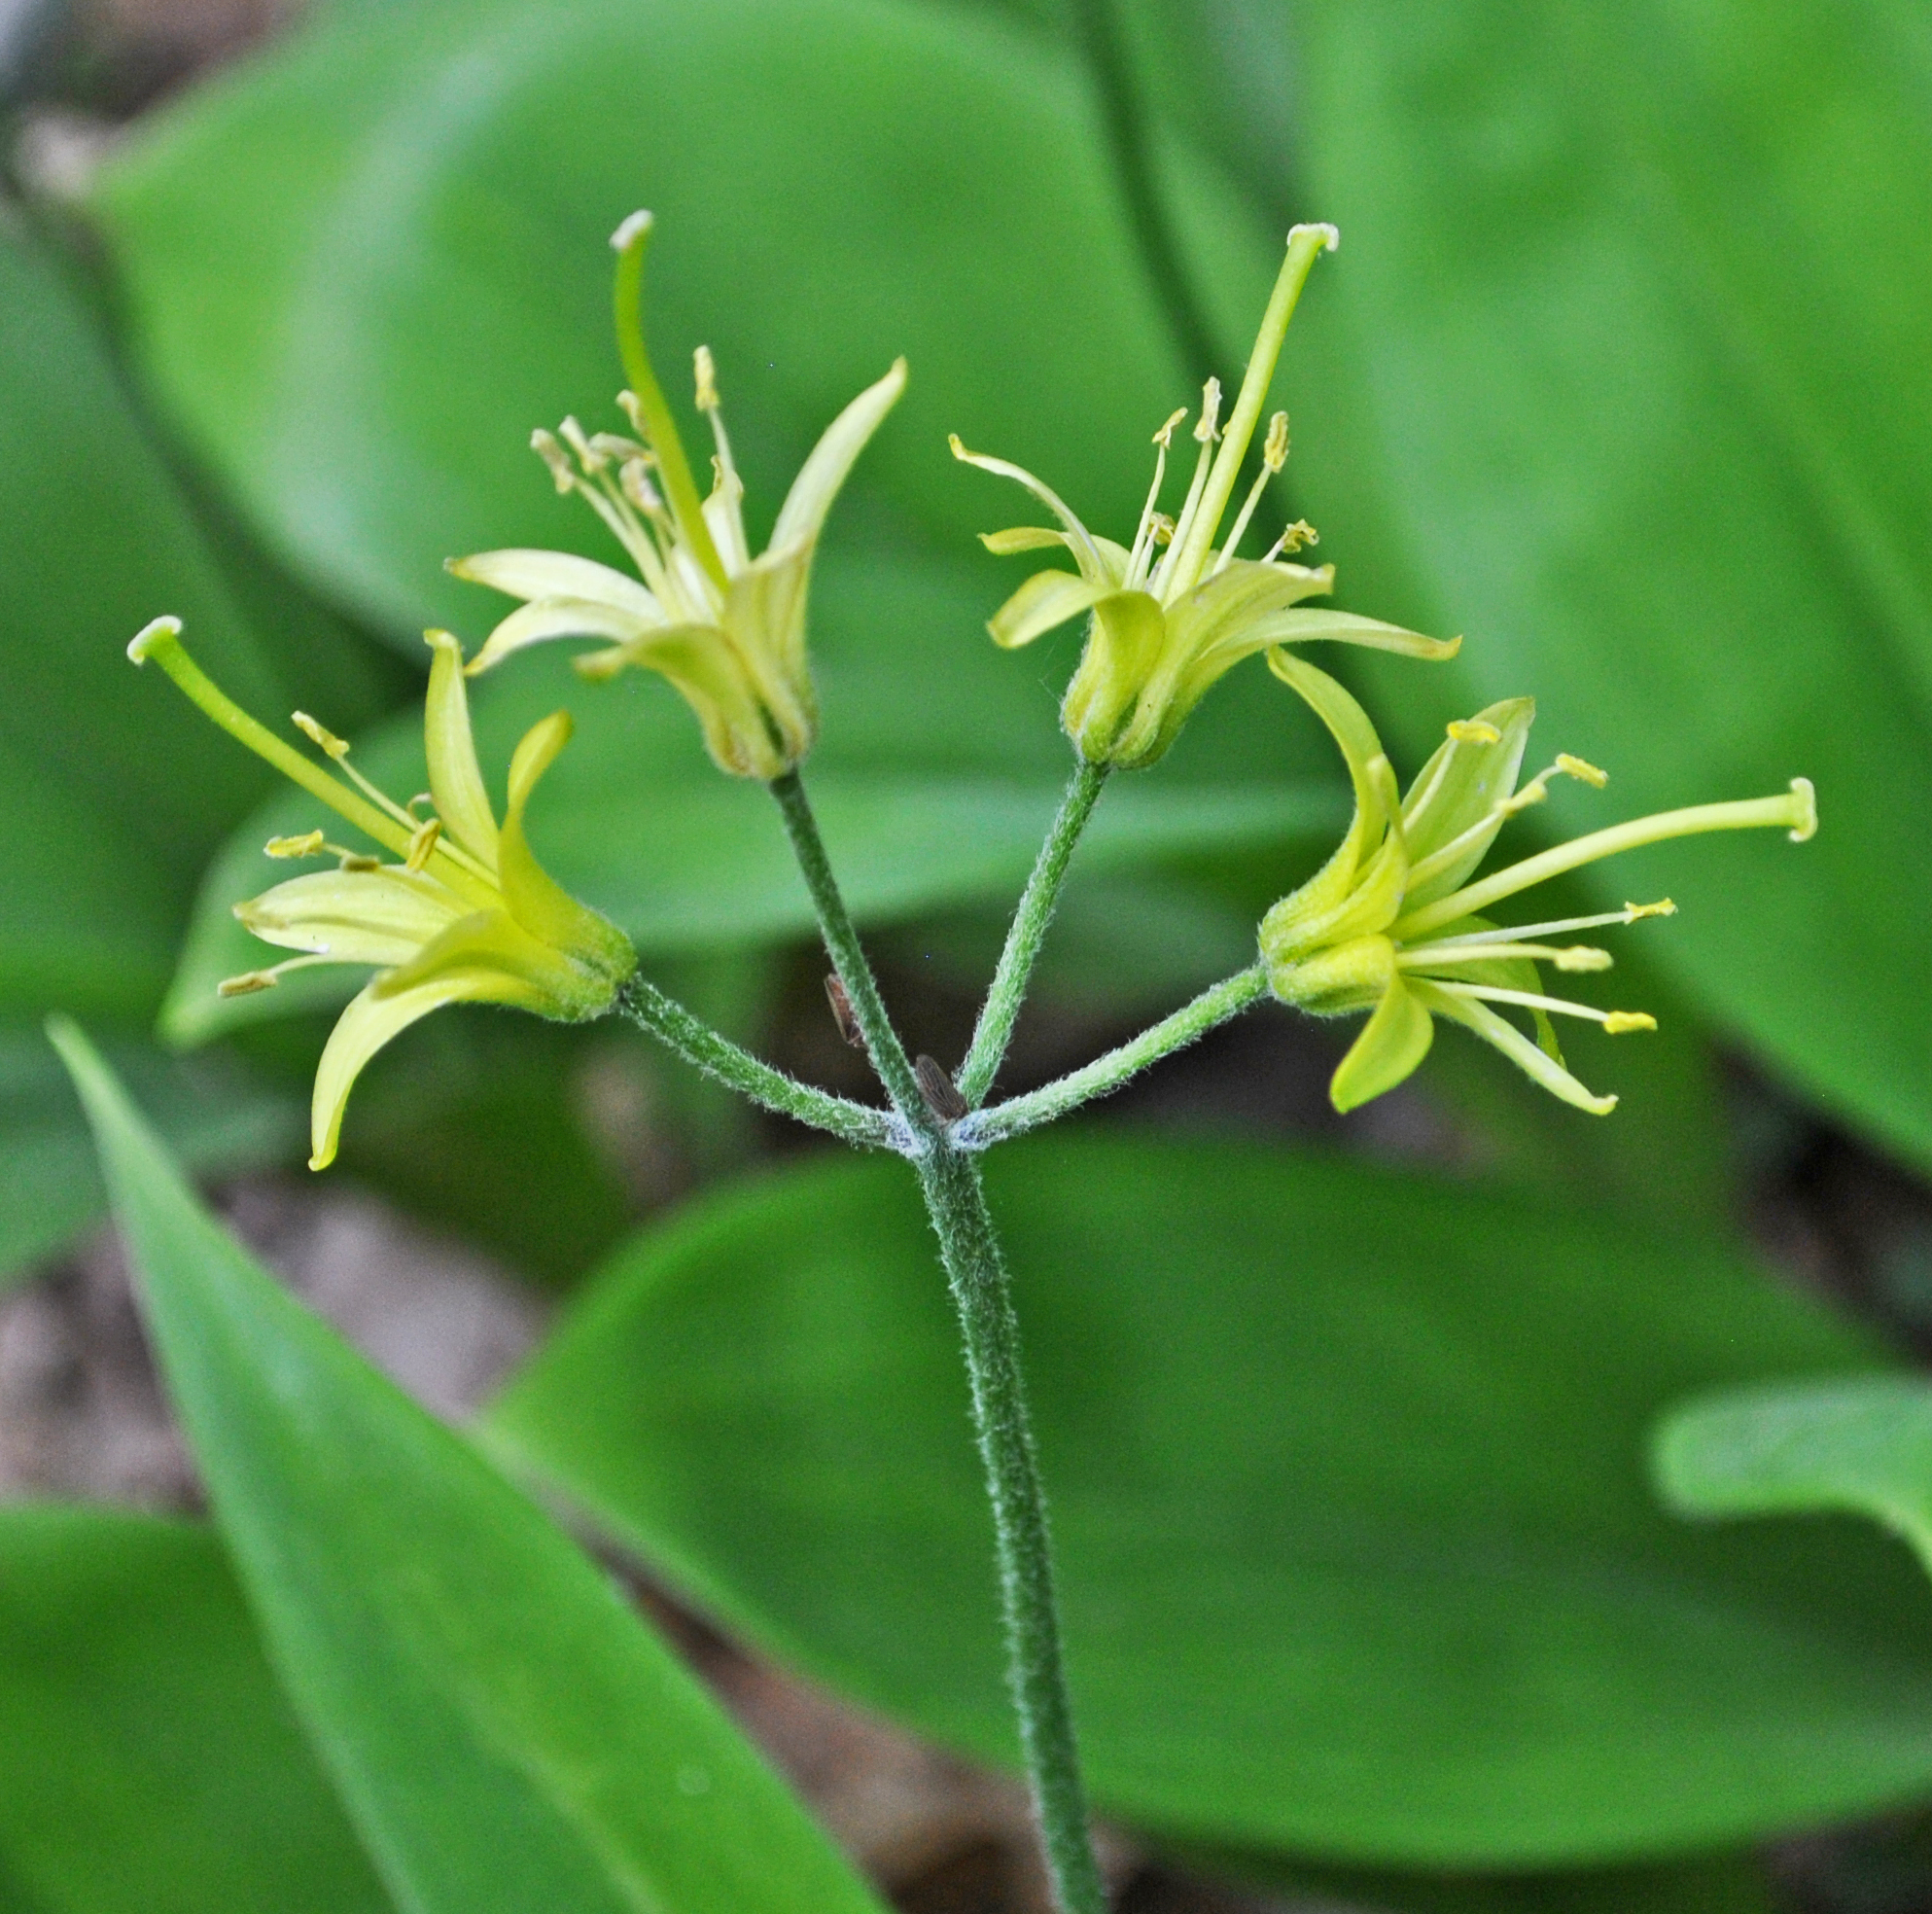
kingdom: Plantae
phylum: Tracheophyta
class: Liliopsida
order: Liliales
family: Liliaceae
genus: Clintonia
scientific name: Clintonia borealis
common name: Yellow clintonia
